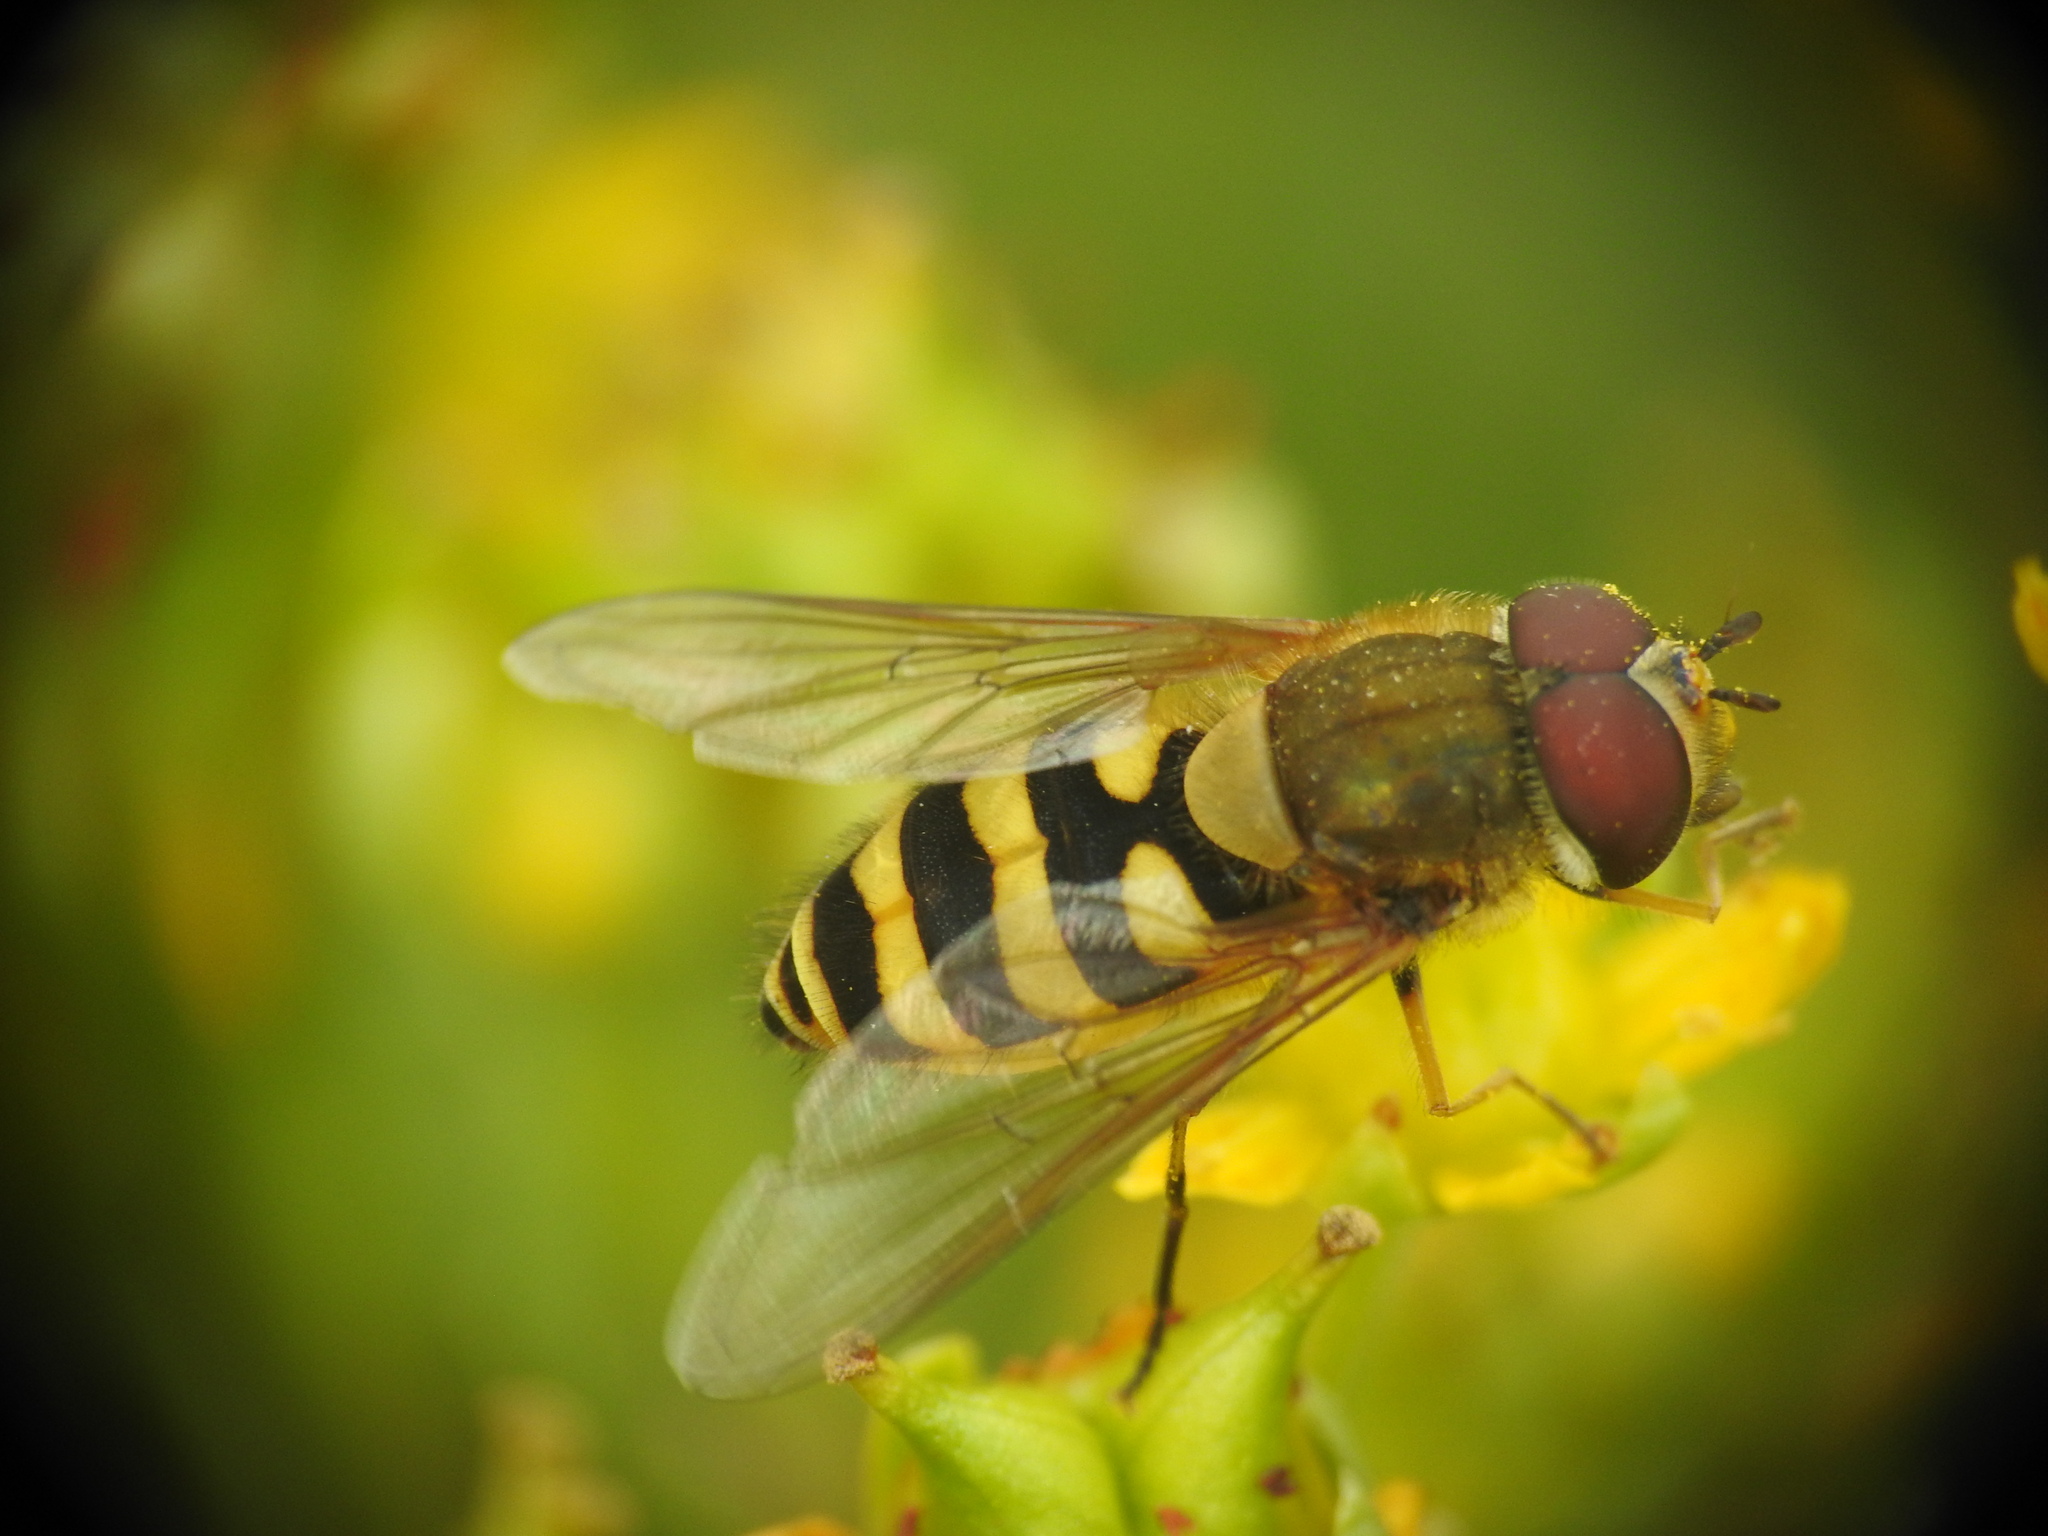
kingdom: Animalia
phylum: Arthropoda
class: Insecta
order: Diptera
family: Syrphidae
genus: Syrphus
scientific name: Syrphus torvus
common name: Hairy-eyed flower fly
